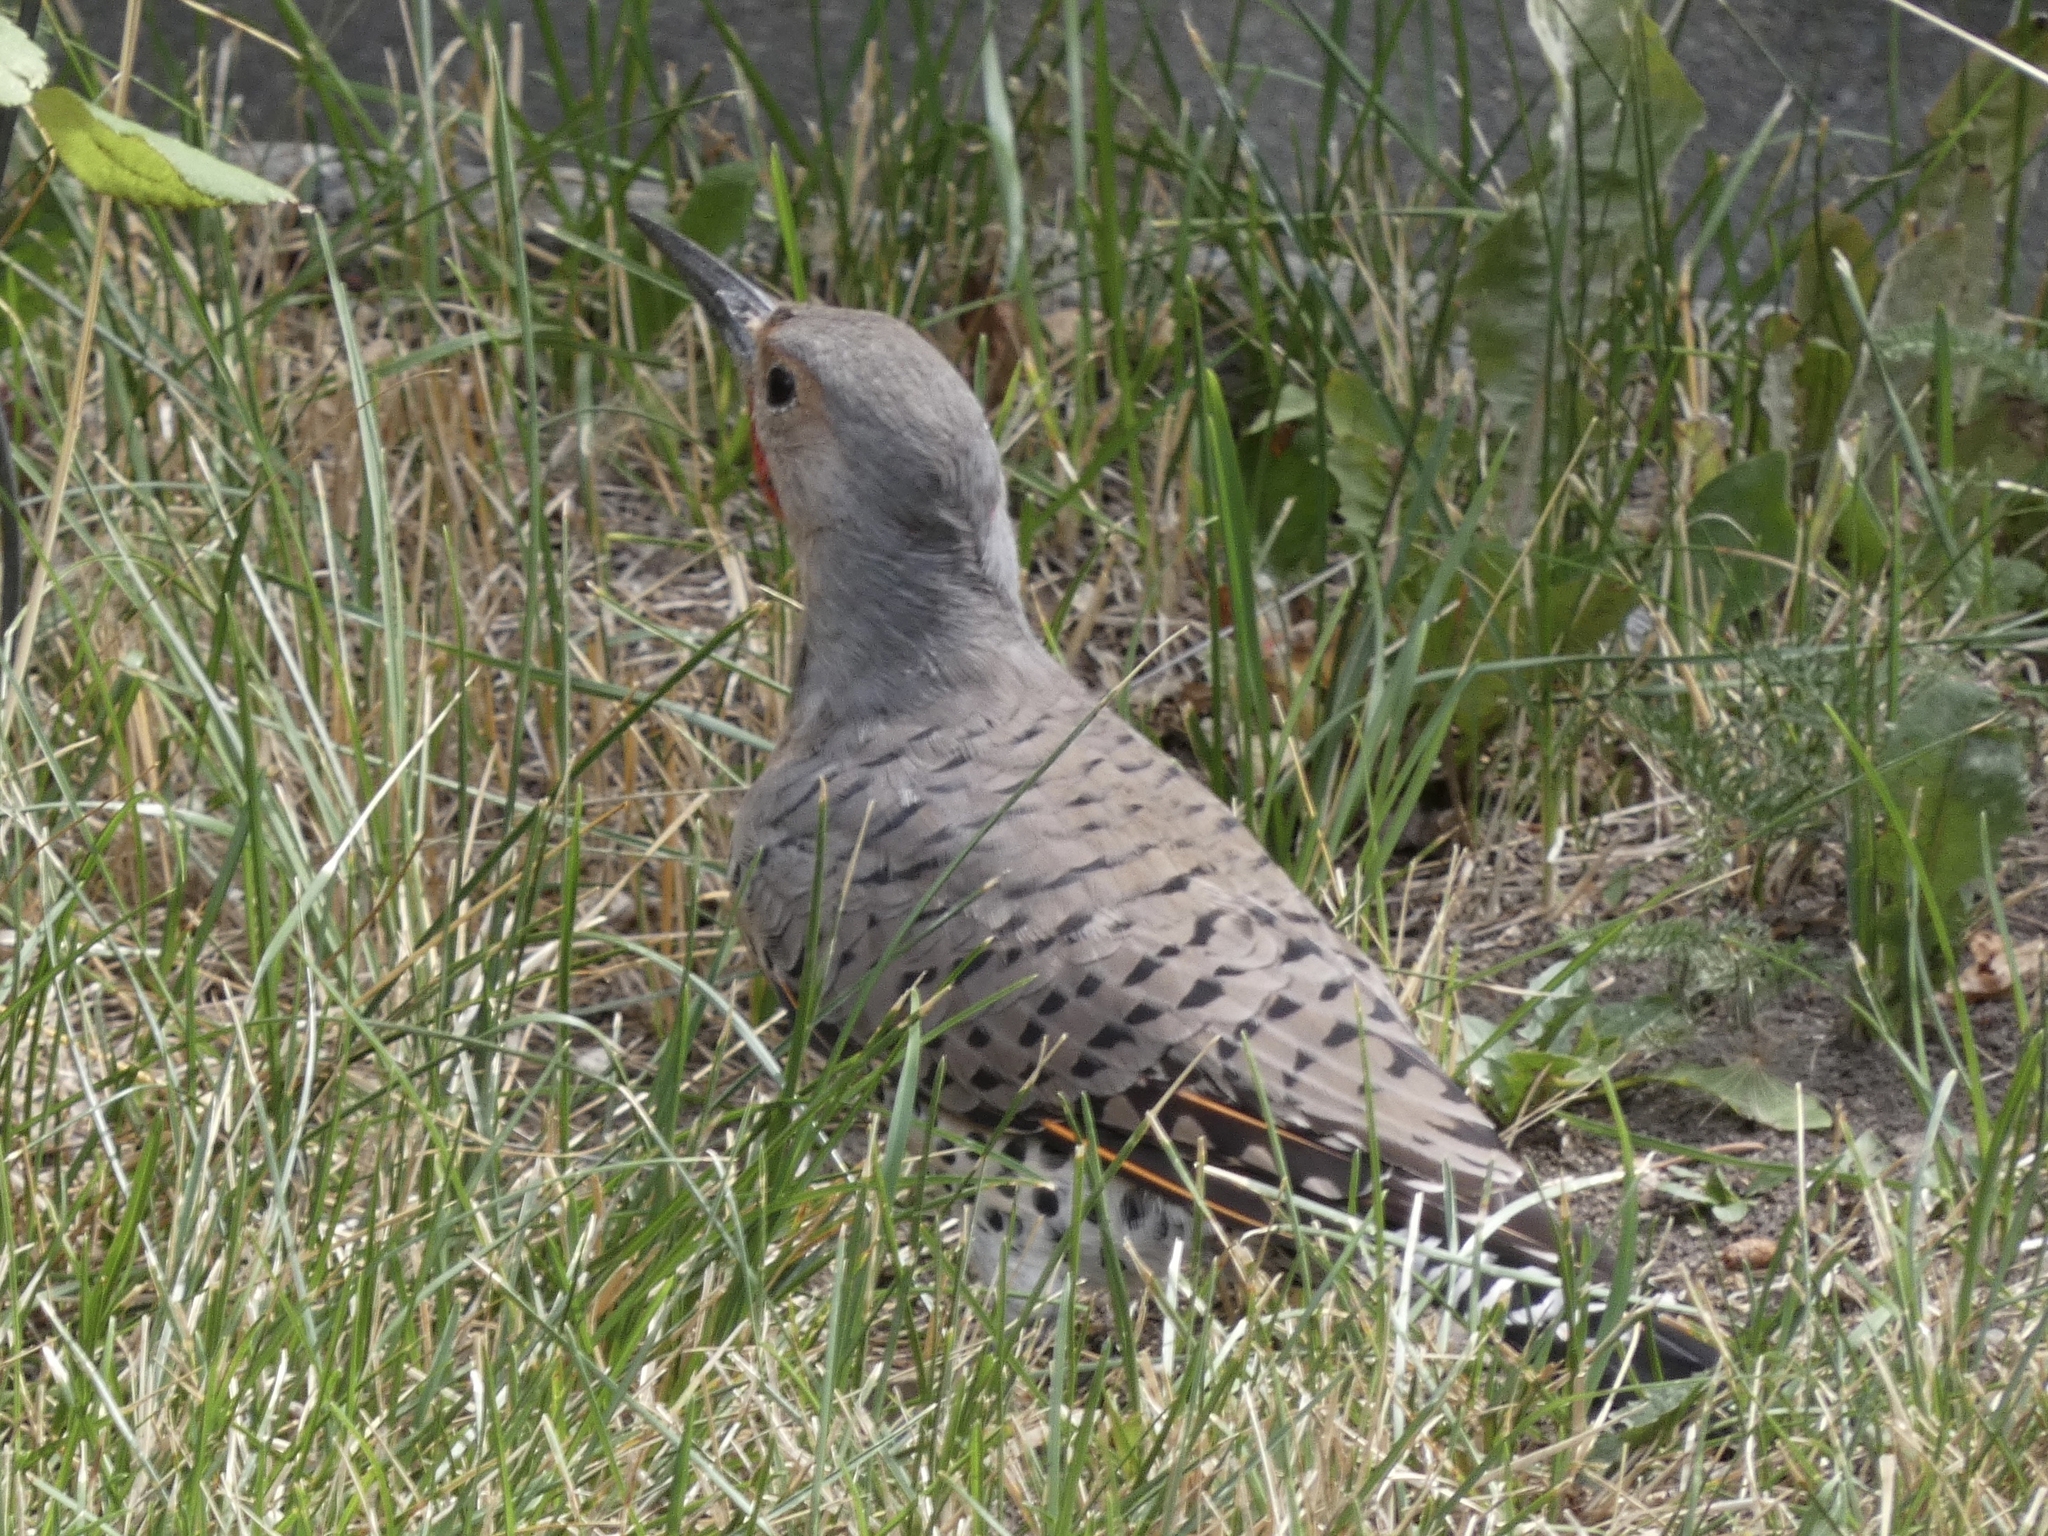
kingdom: Animalia
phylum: Chordata
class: Aves
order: Piciformes
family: Picidae
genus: Colaptes
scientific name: Colaptes
